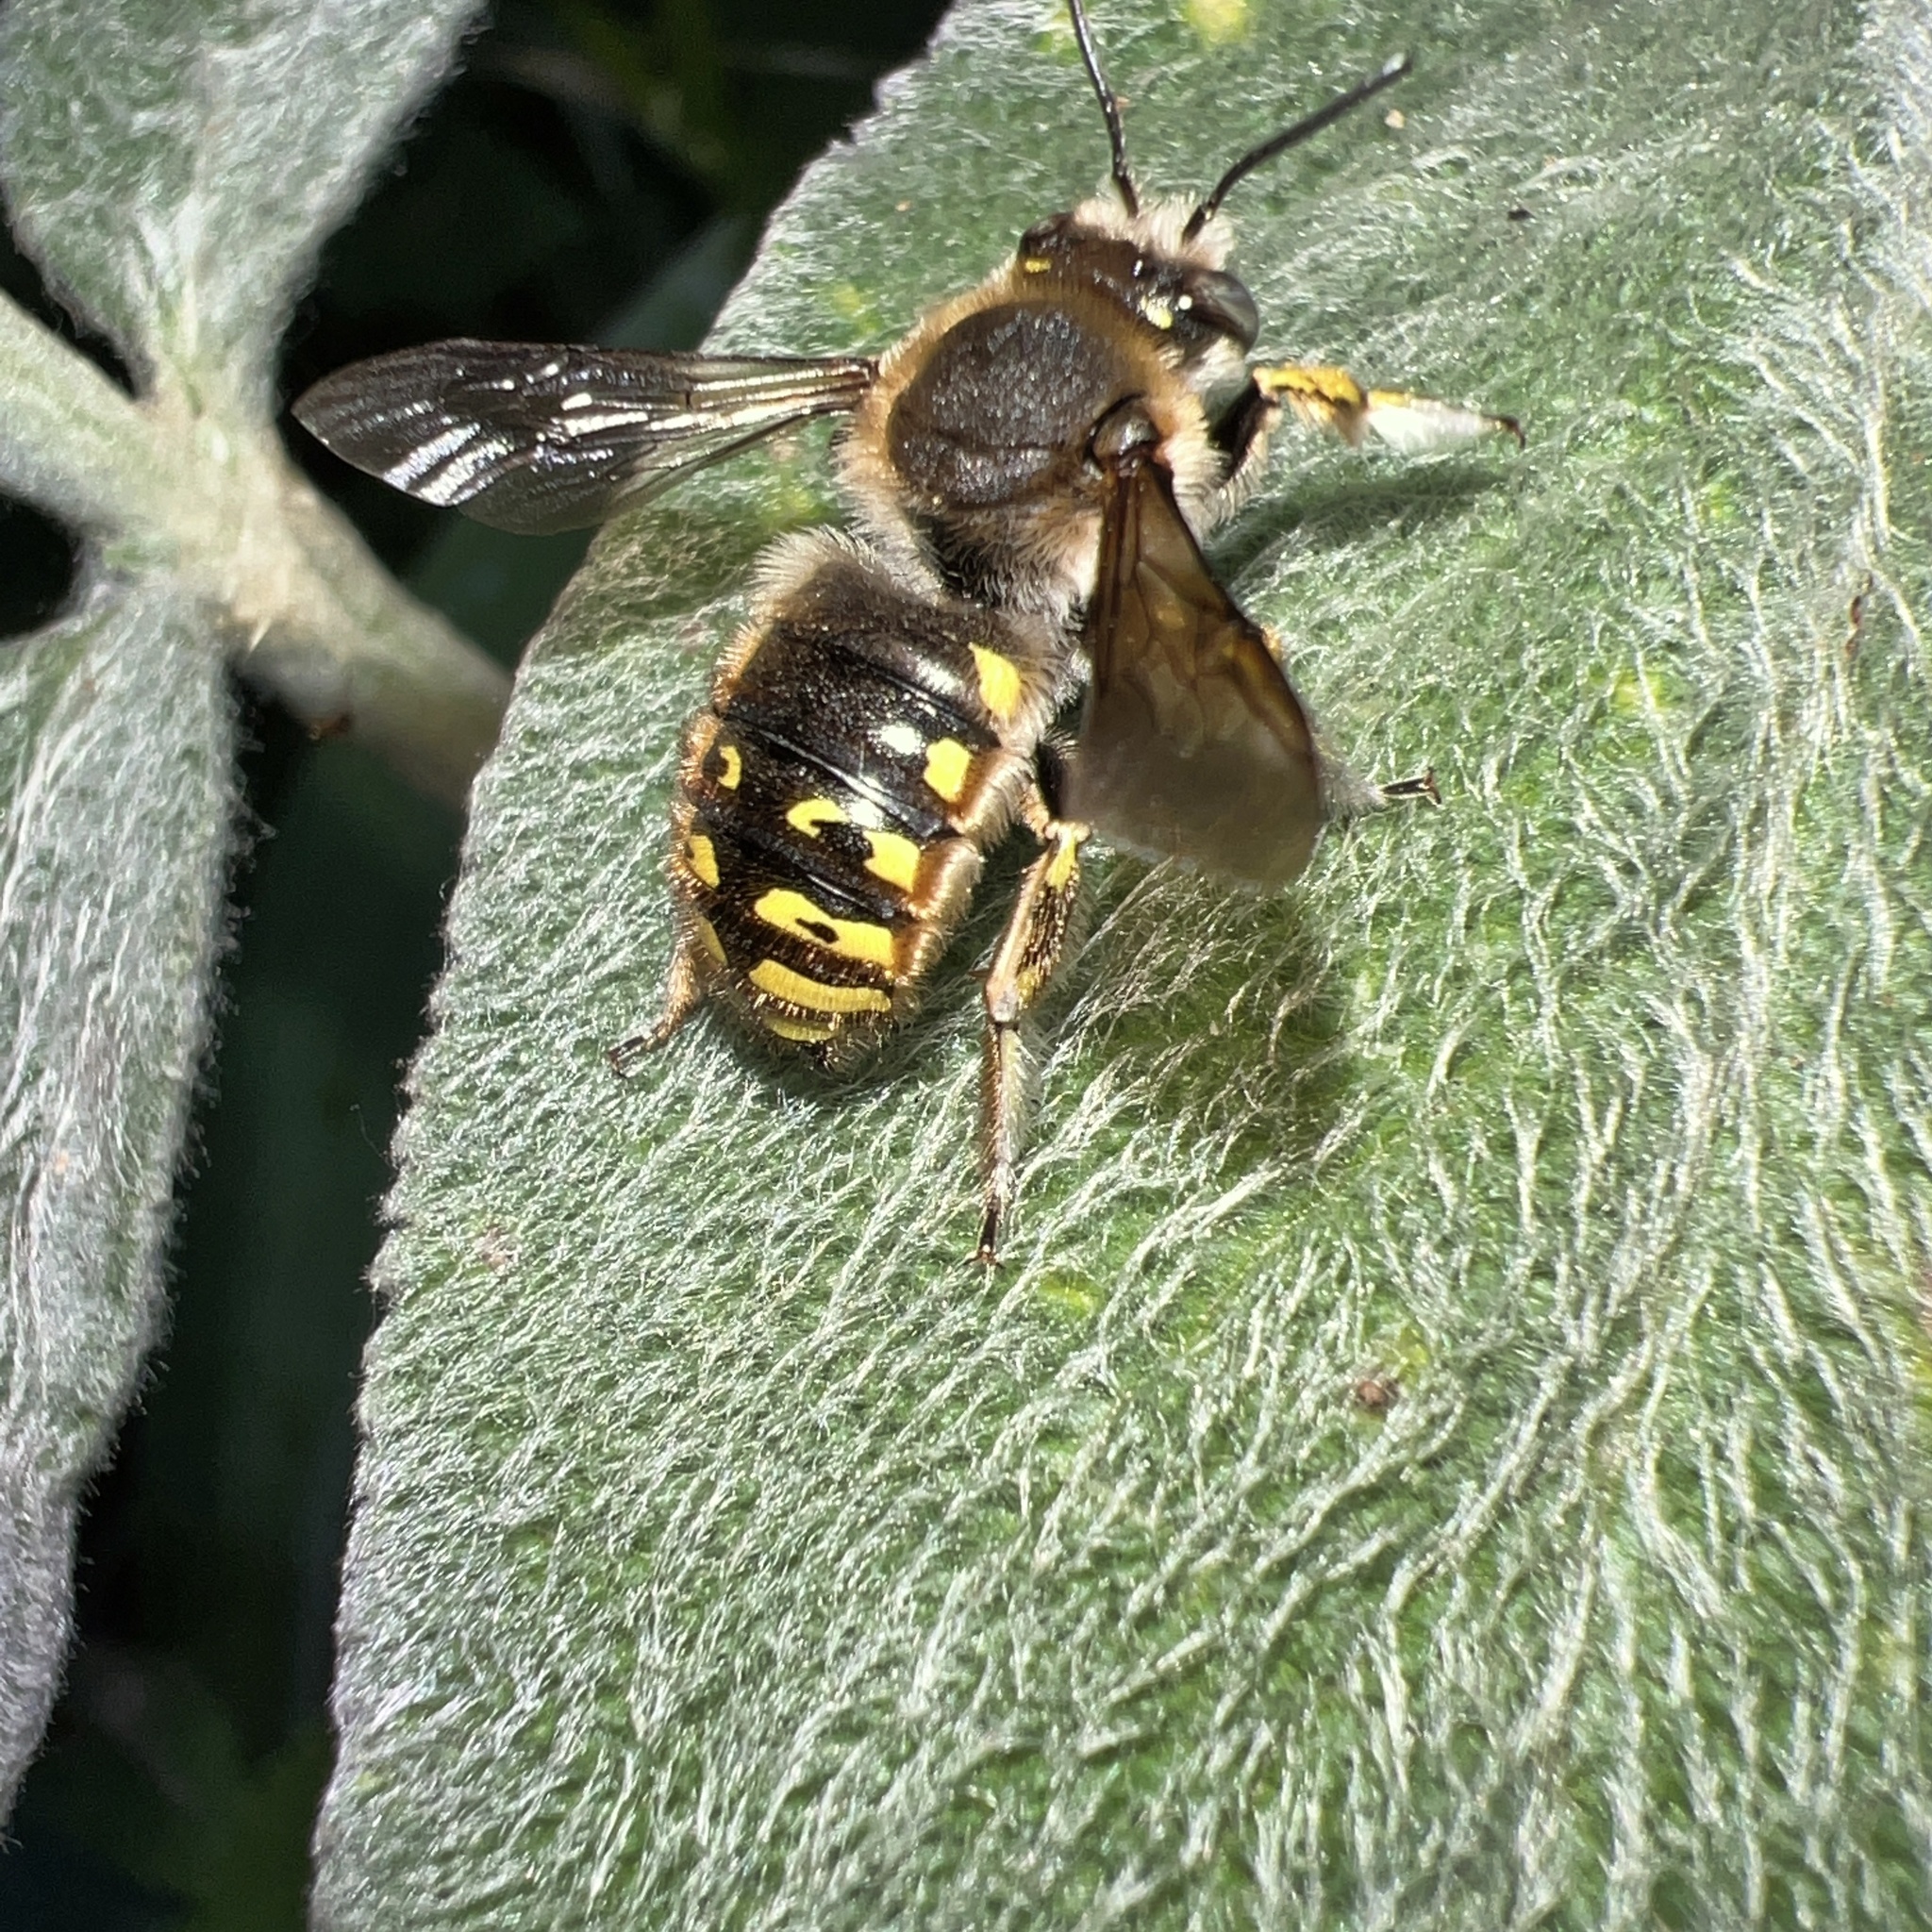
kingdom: Animalia
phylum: Arthropoda
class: Insecta
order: Hymenoptera
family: Megachilidae
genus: Anthidium
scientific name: Anthidium manicatum
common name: Wool carder bee
